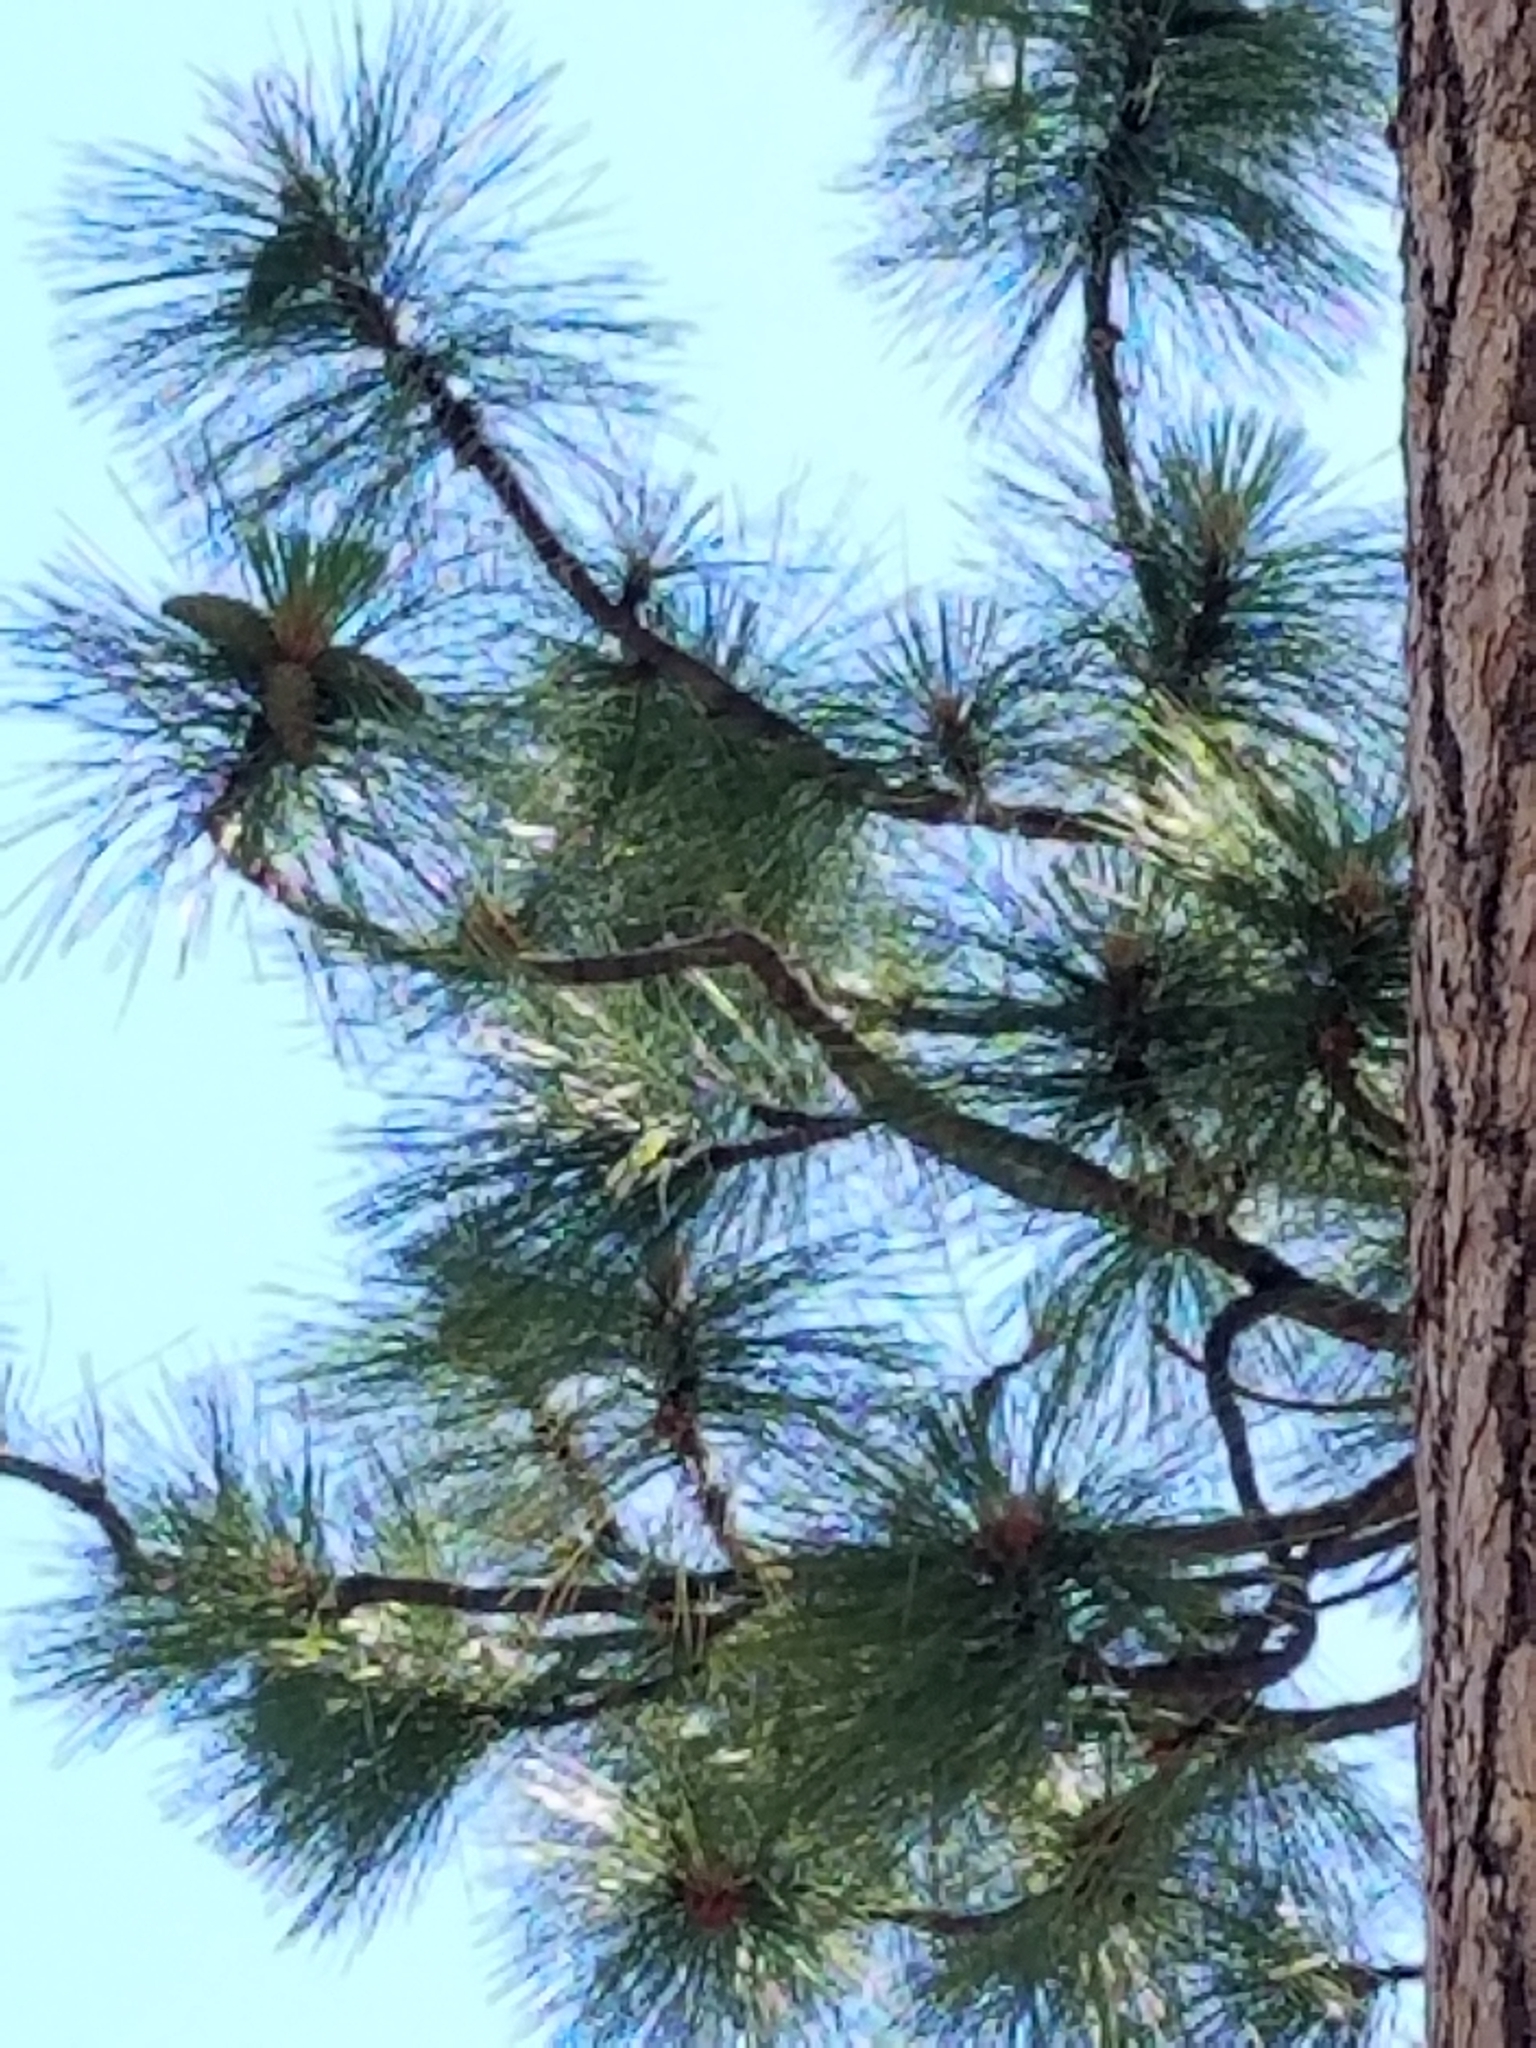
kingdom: Plantae
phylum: Tracheophyta
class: Pinopsida
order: Pinales
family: Pinaceae
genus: Pinus
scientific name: Pinus jeffreyi
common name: Jeffrey pine
